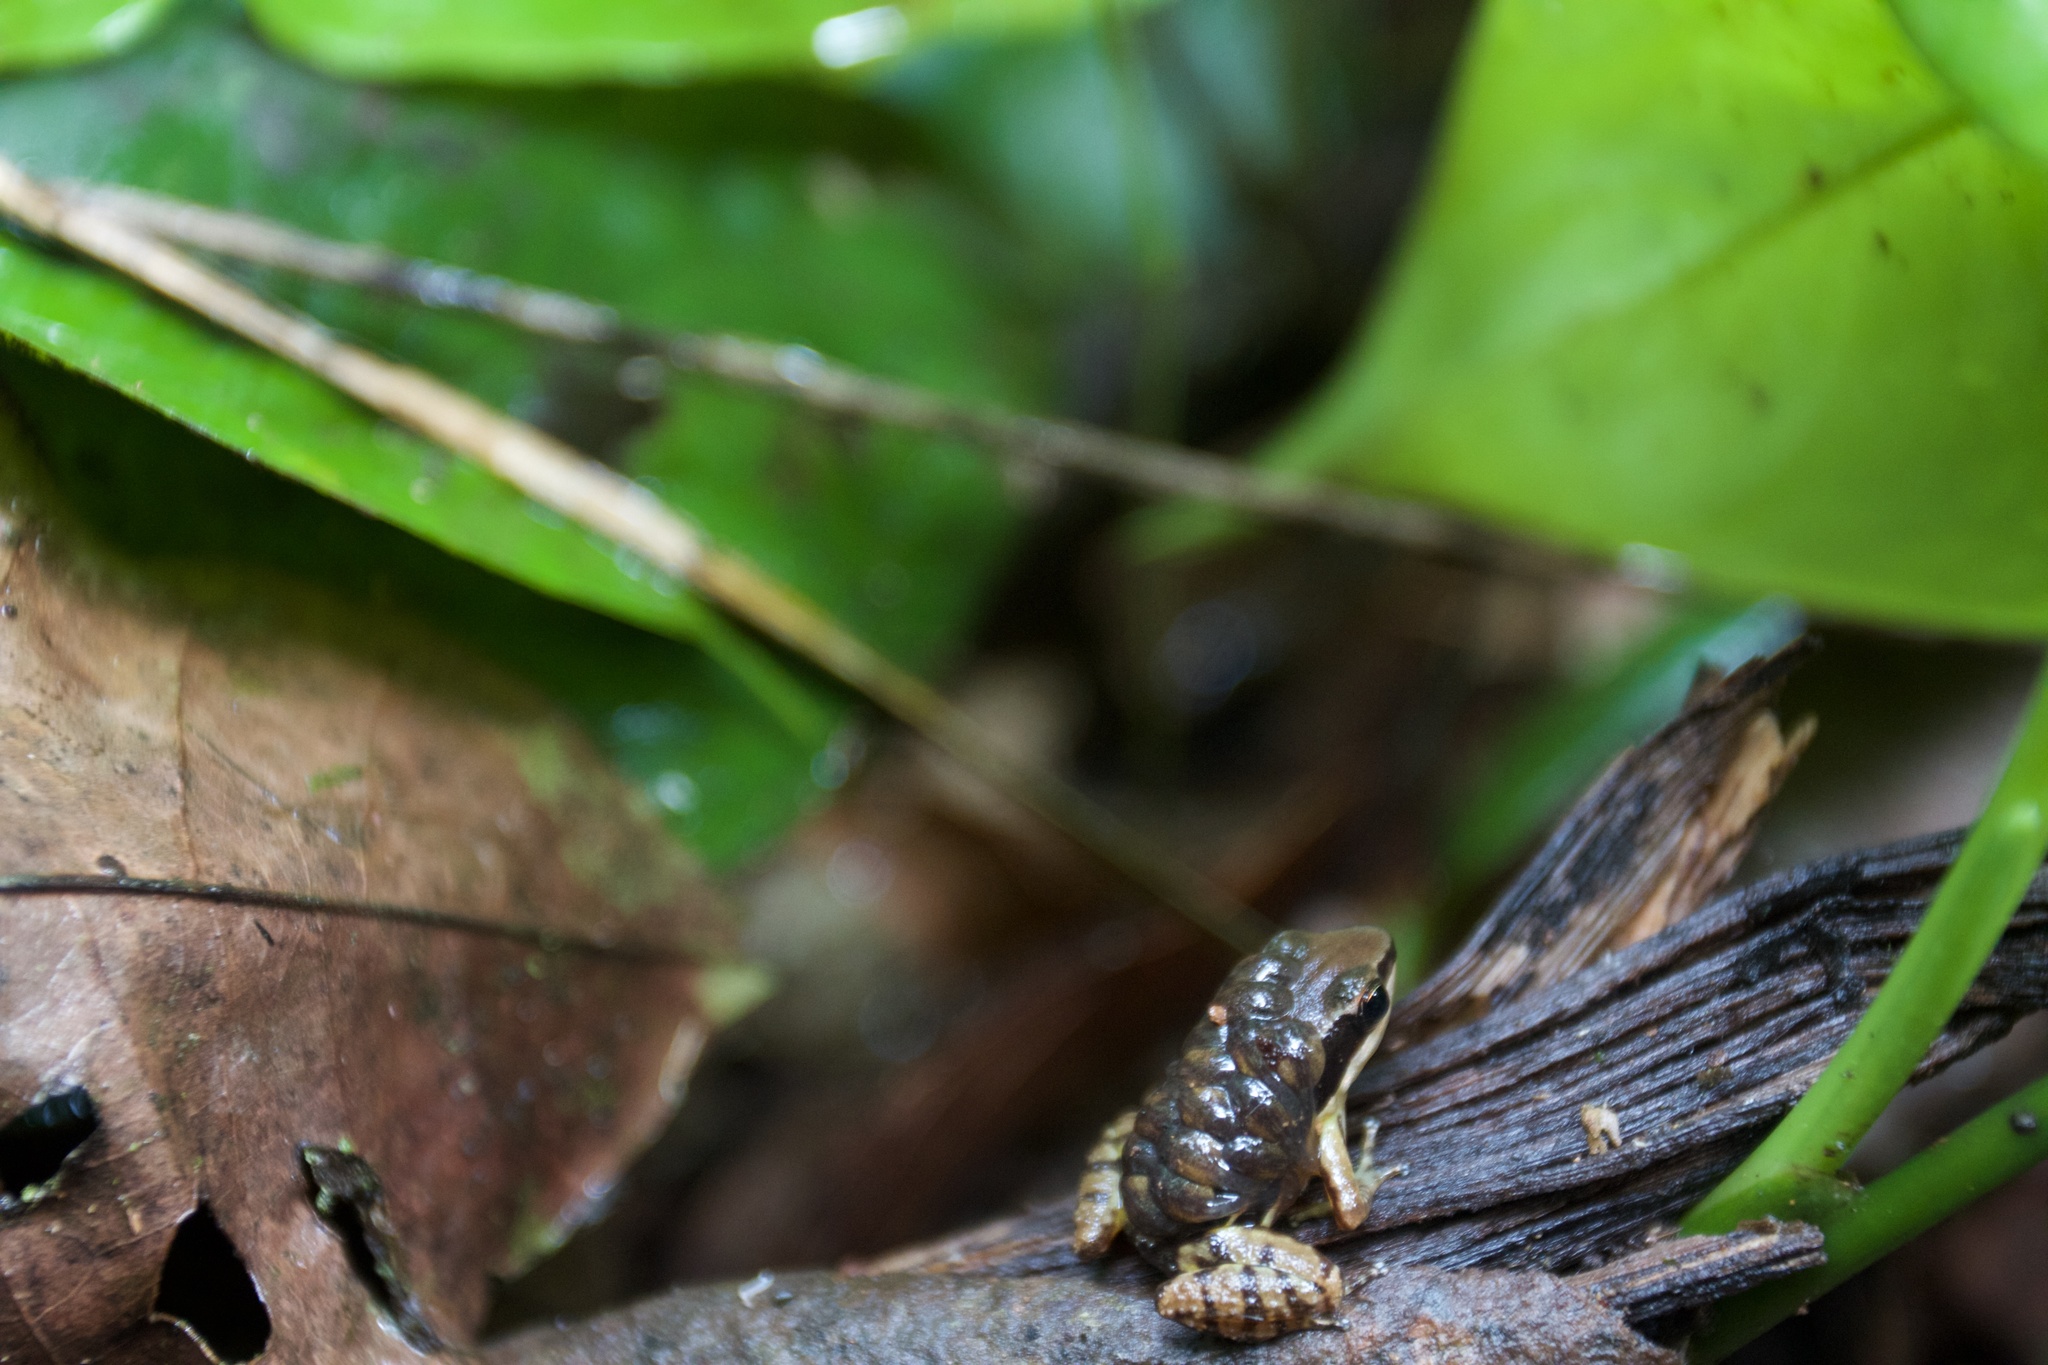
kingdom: Animalia
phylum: Chordata
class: Amphibia
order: Anura
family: Dendrobatidae
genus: Colostethus
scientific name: Colostethus pratti
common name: Pratt's rocket frog
